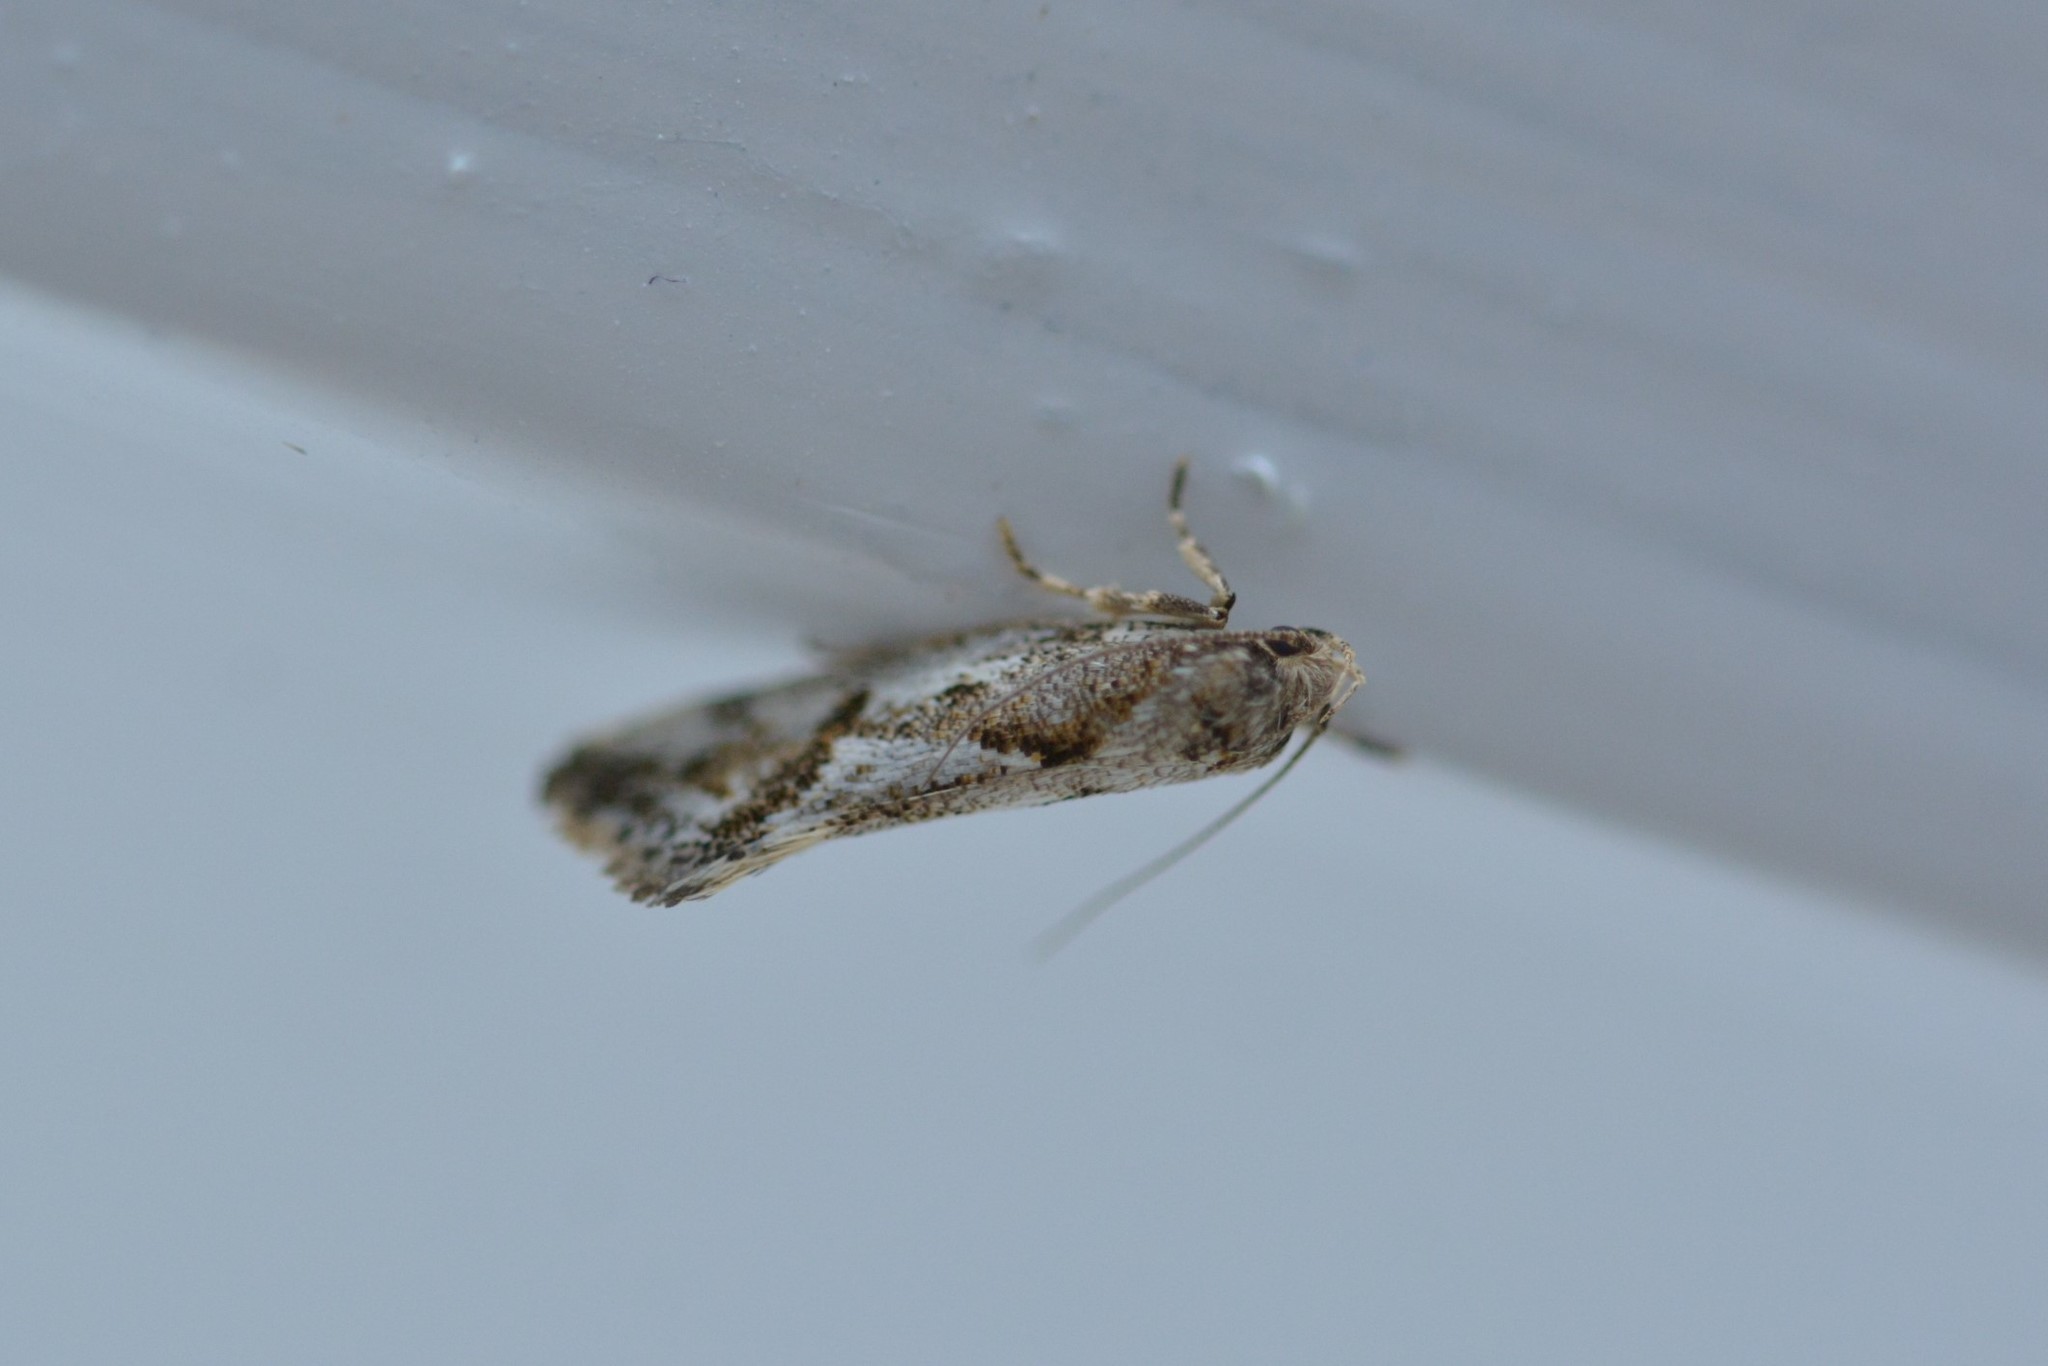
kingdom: Animalia
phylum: Arthropoda
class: Insecta
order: Lepidoptera
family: Oecophoridae
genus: Tingena
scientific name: Tingena hemimochla
